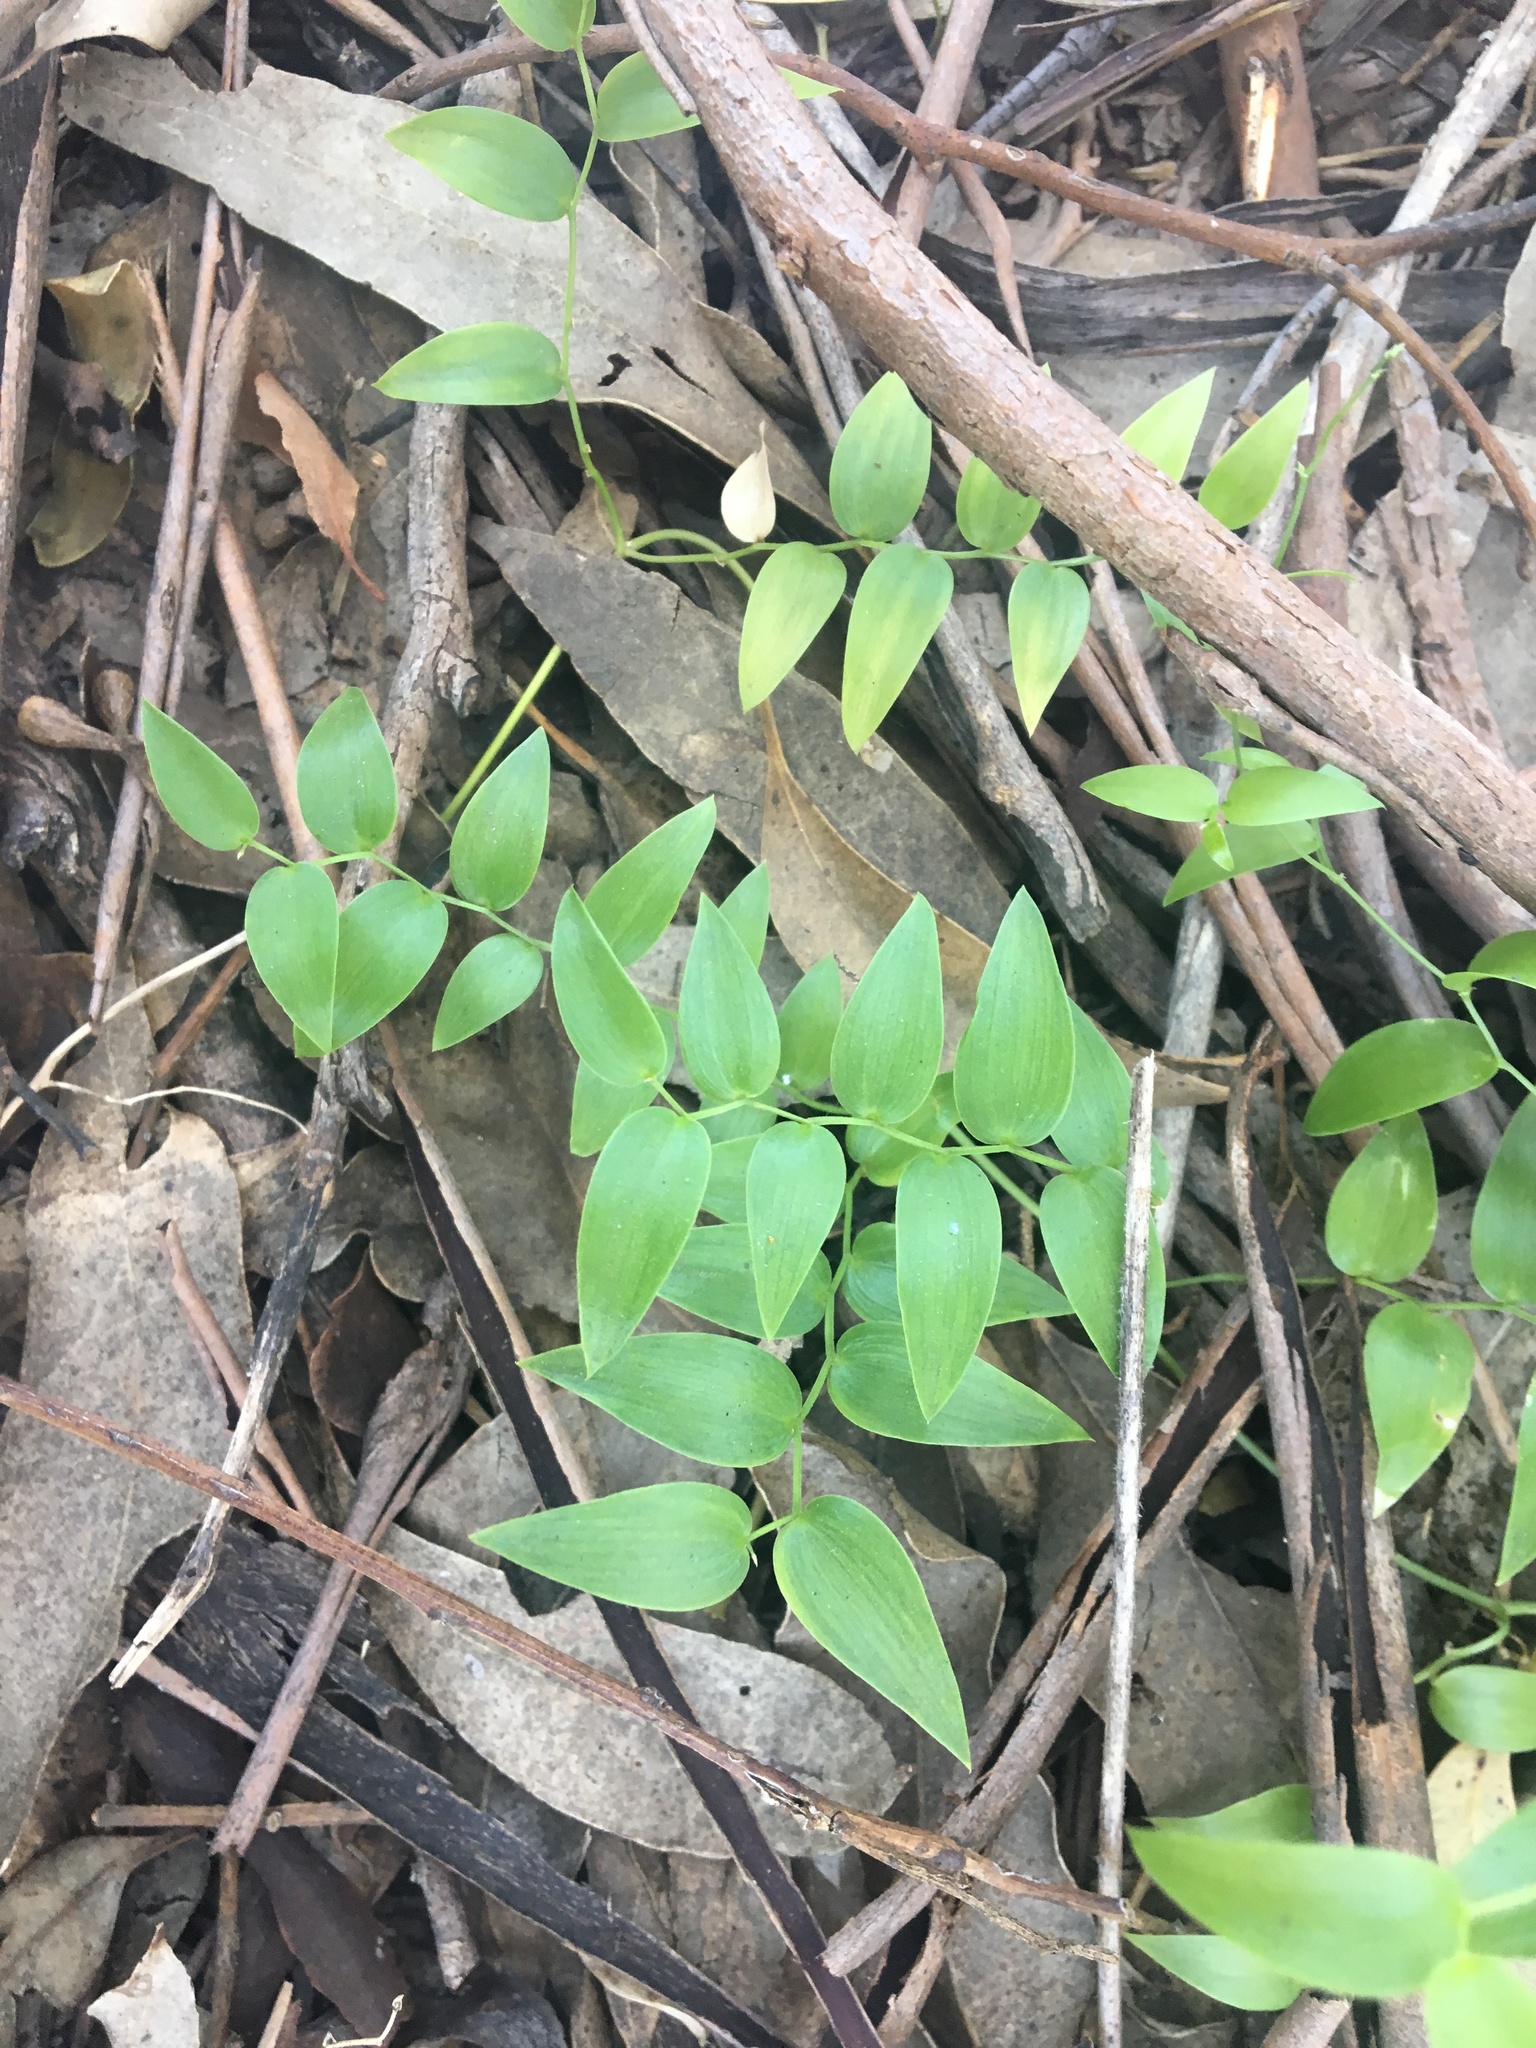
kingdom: Plantae
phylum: Tracheophyta
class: Liliopsida
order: Asparagales
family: Asparagaceae
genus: Asparagus
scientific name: Asparagus asparagoides
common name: African asparagus fern
